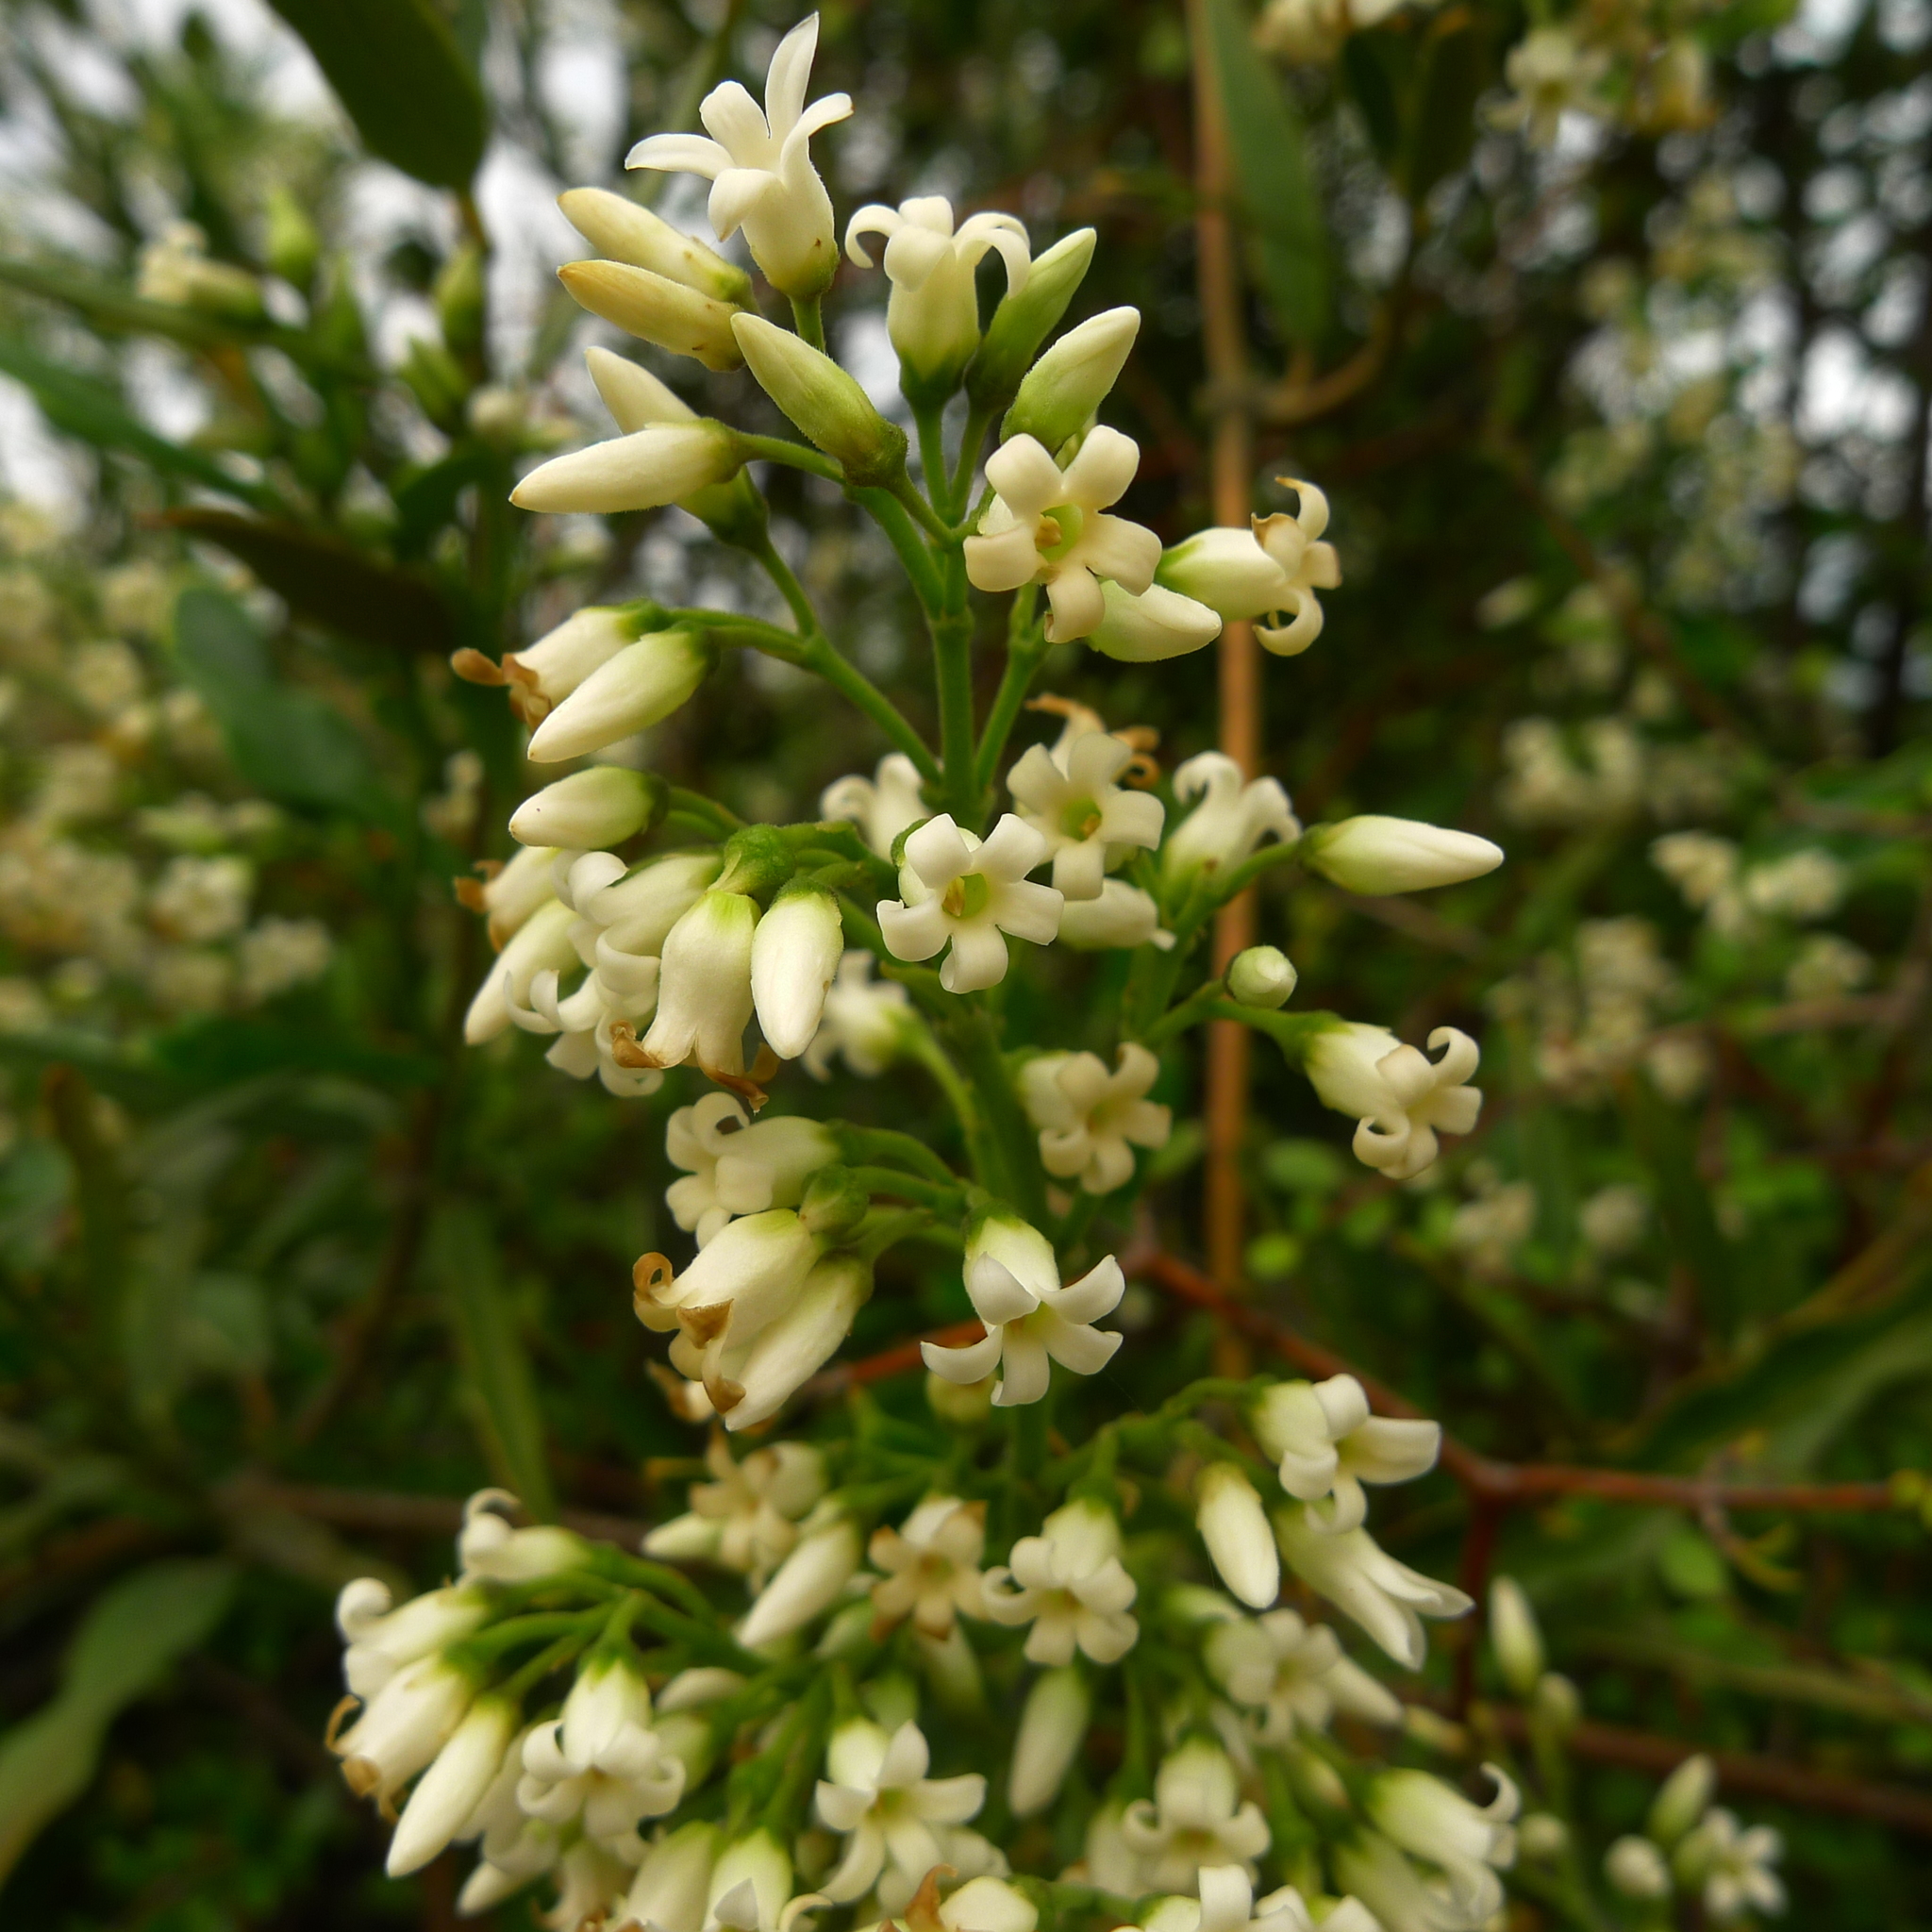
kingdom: Plantae
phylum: Tracheophyta
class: Magnoliopsida
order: Gentianales
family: Apocynaceae
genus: Parsonsia
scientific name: Parsonsia heterophylla
